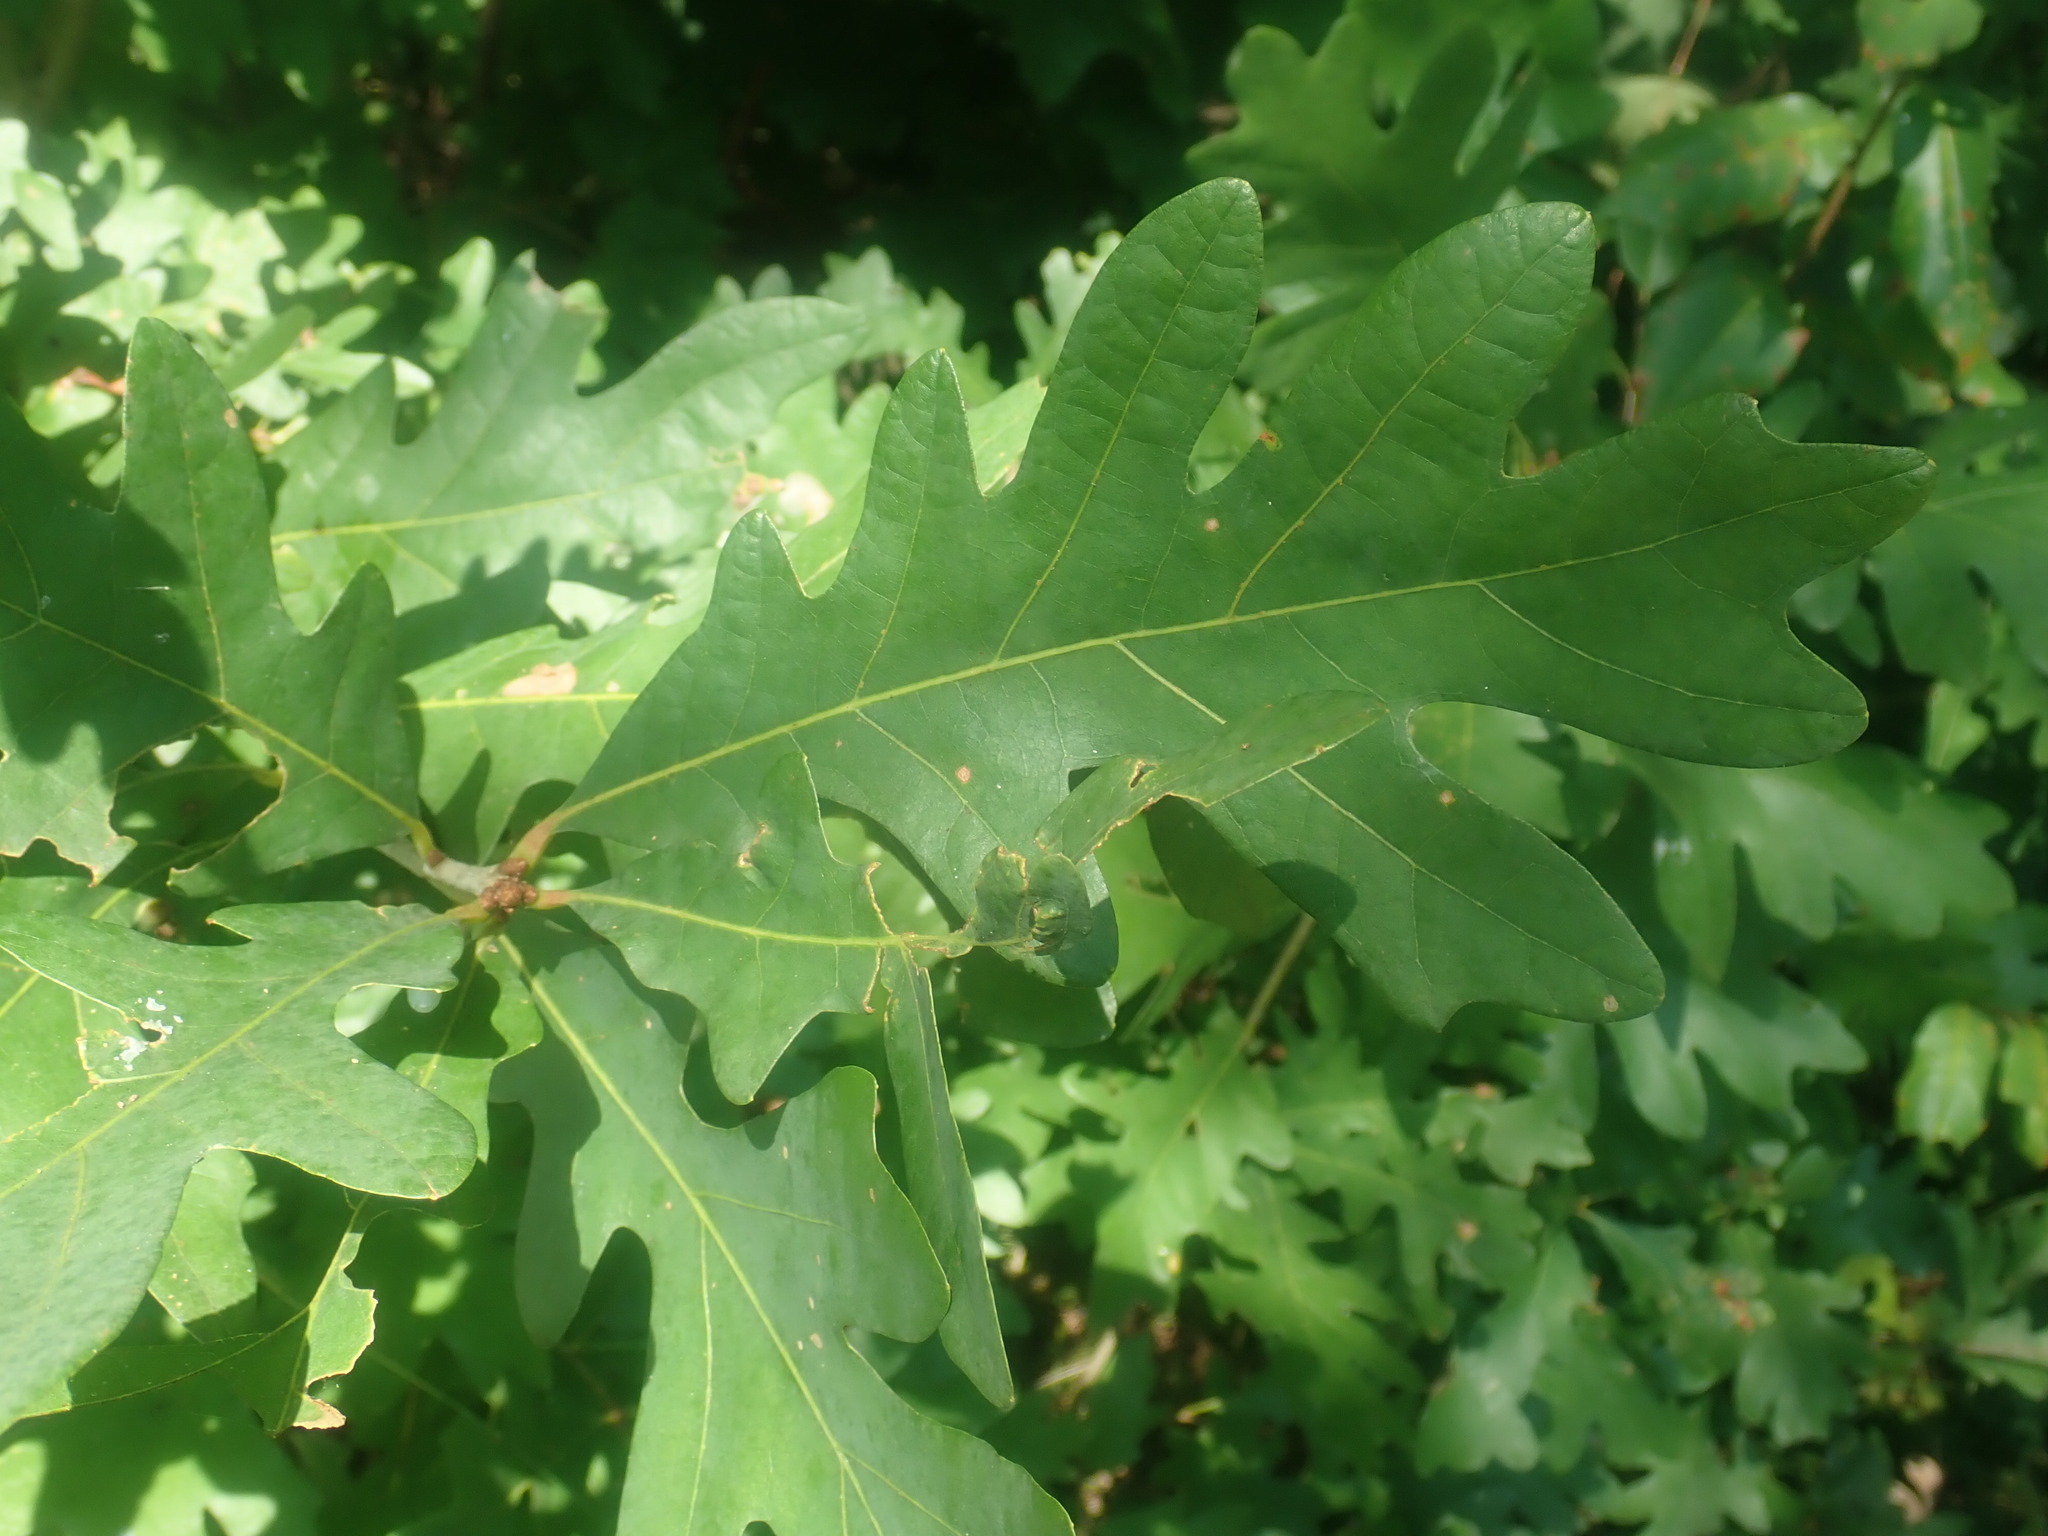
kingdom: Plantae
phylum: Tracheophyta
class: Magnoliopsida
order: Fagales
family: Fagaceae
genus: Quercus
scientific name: Quercus alba
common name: White oak
